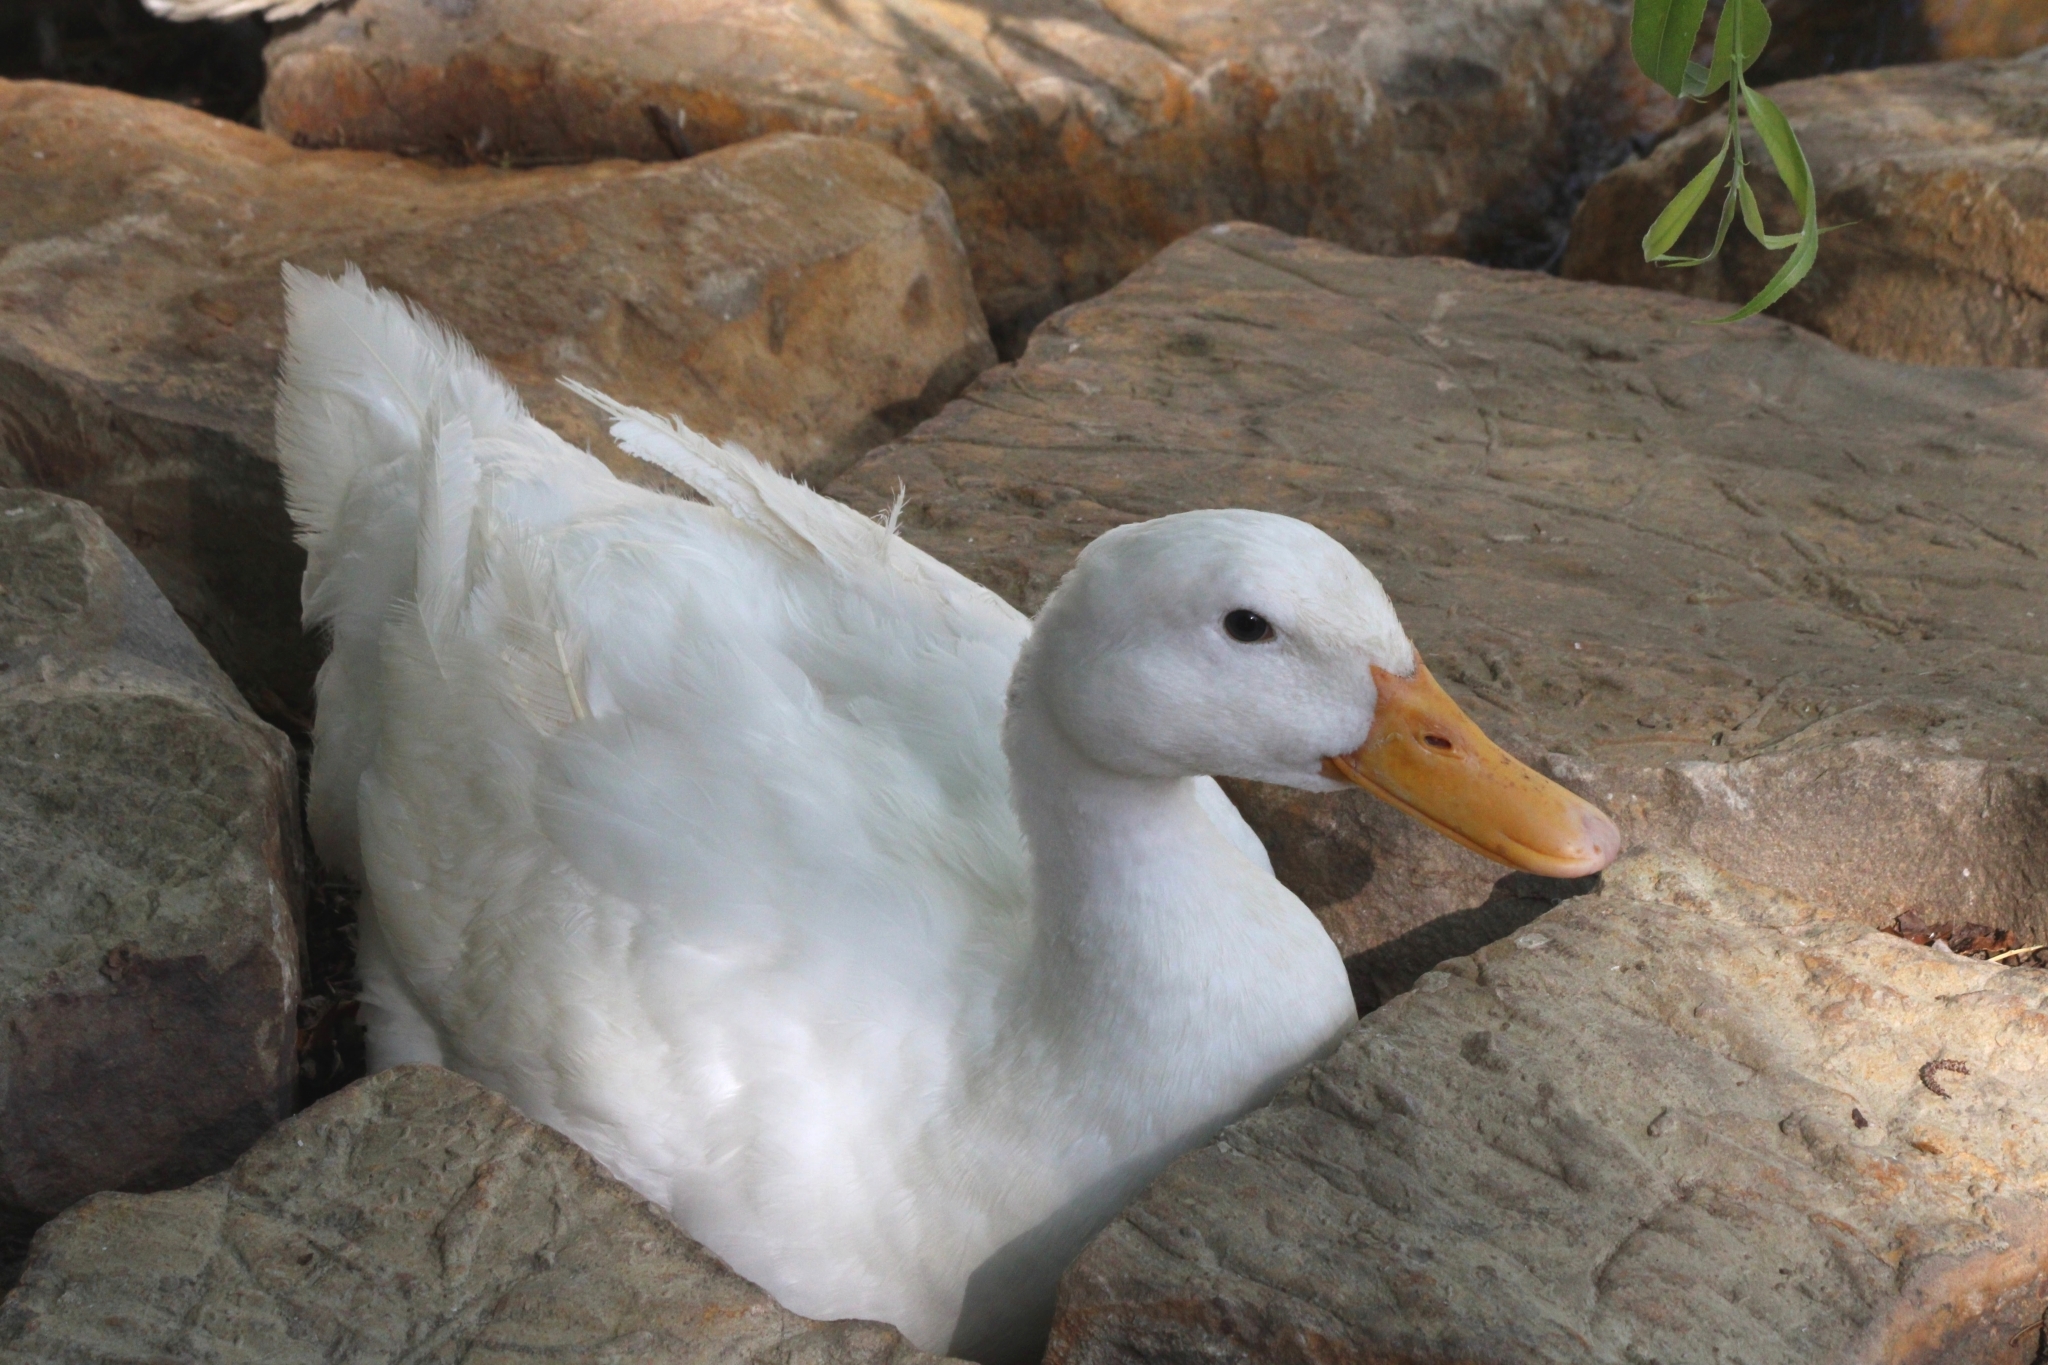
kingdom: Animalia
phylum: Chordata
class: Aves
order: Anseriformes
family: Anatidae
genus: Anas
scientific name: Anas platyrhynchos
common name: Mallard
